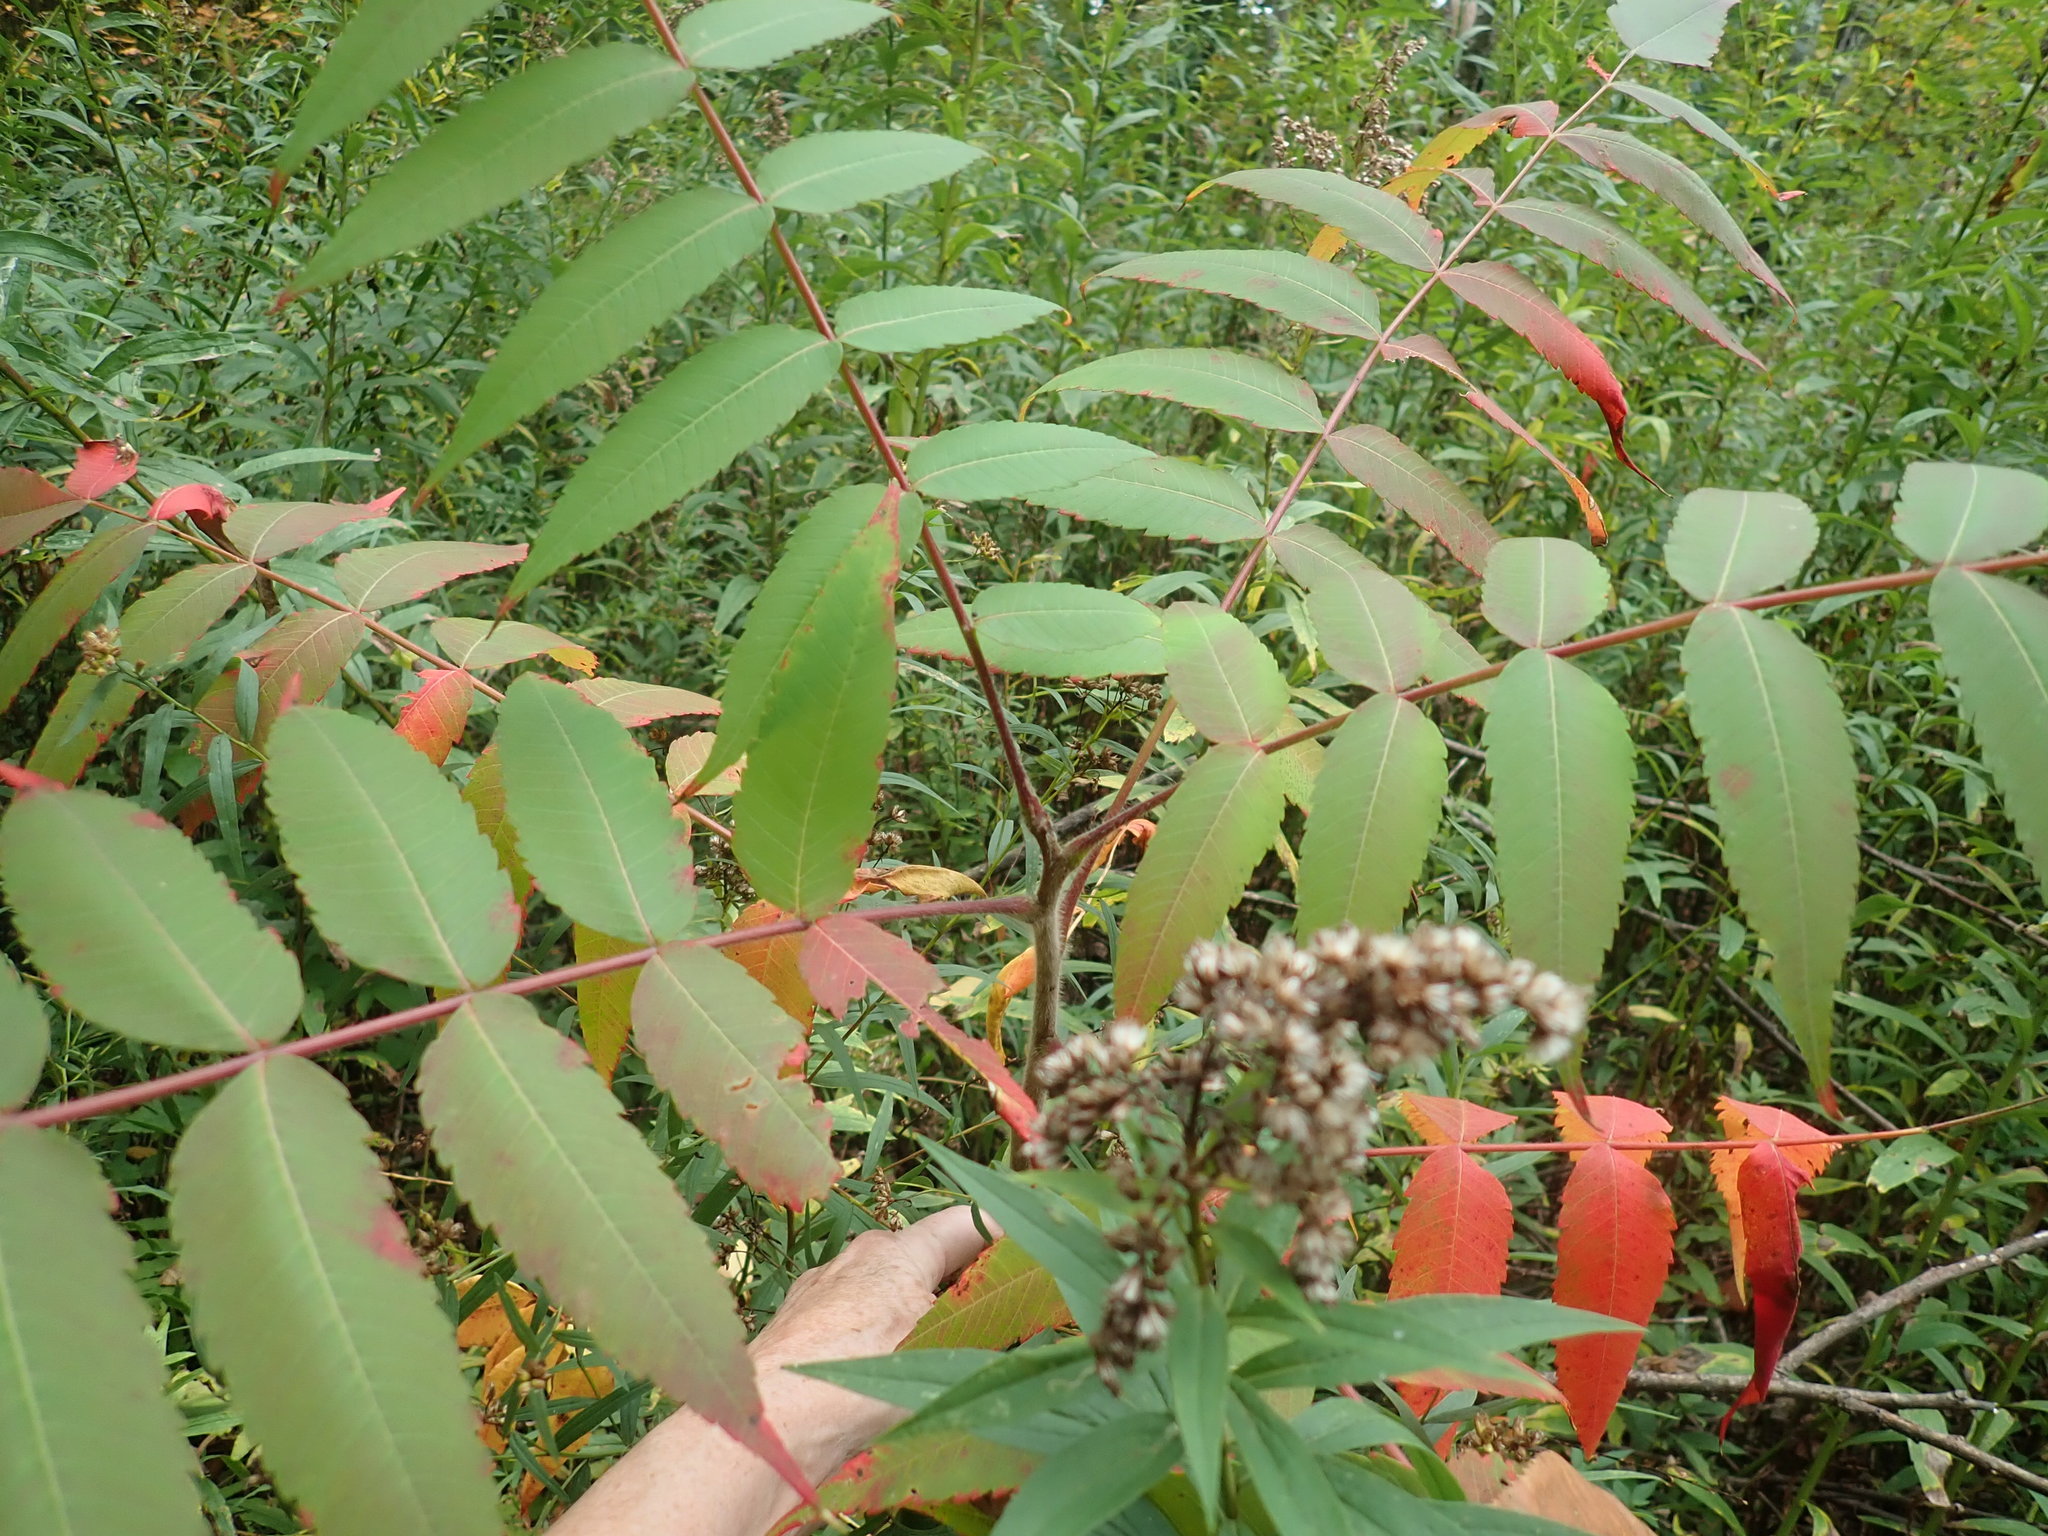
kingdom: Plantae
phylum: Tracheophyta
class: Magnoliopsida
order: Sapindales
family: Anacardiaceae
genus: Rhus
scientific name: Rhus typhina
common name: Staghorn sumac
